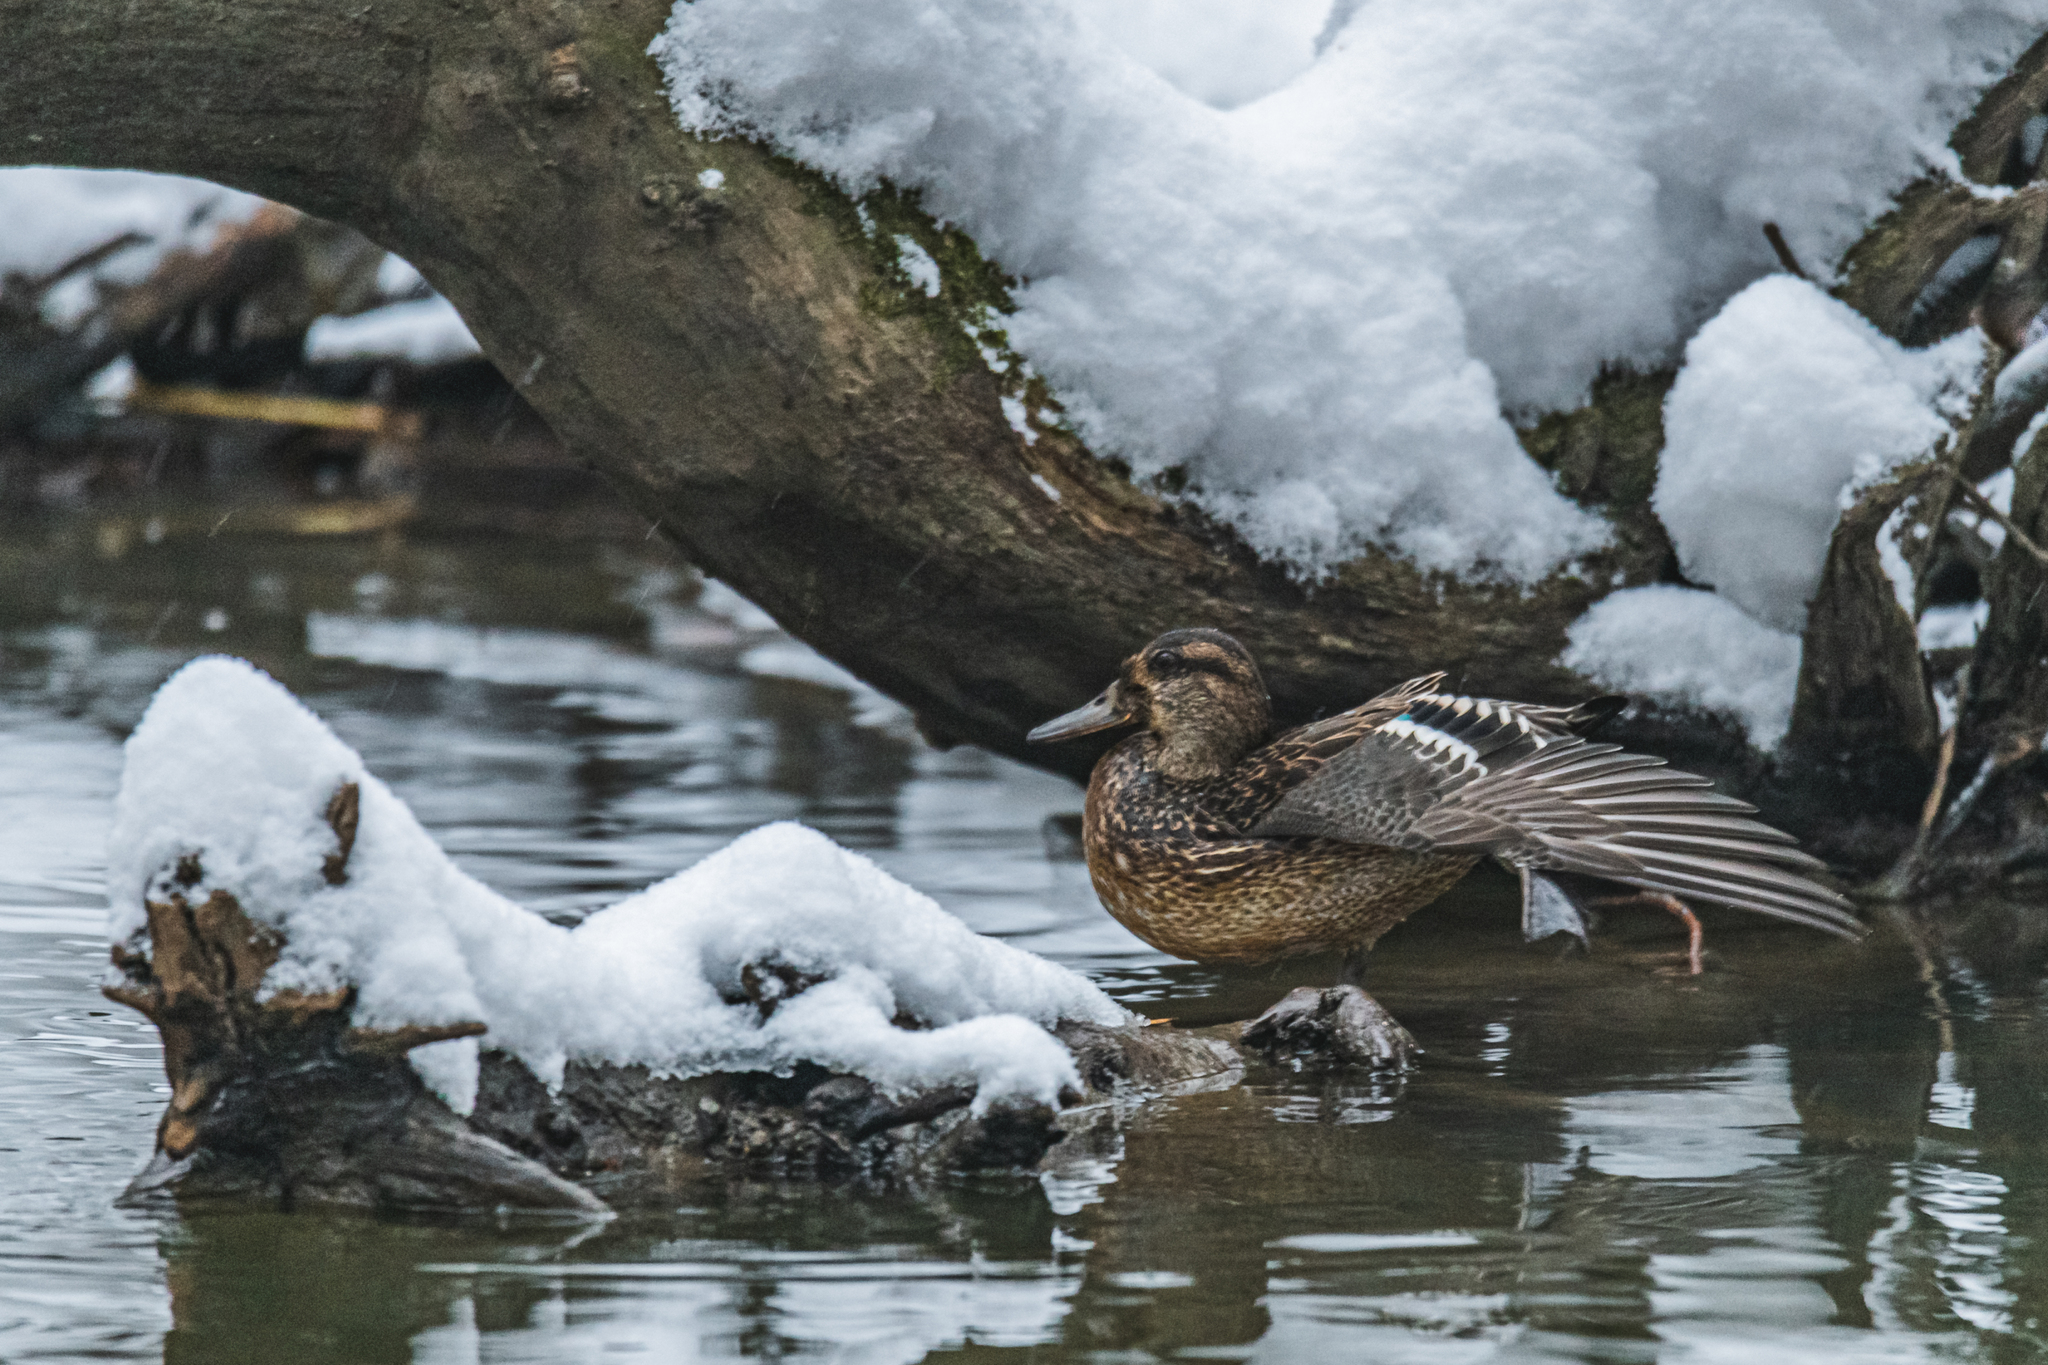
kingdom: Animalia
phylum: Chordata
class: Aves
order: Anseriformes
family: Anatidae
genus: Anas
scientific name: Anas crecca
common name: Eurasian teal
